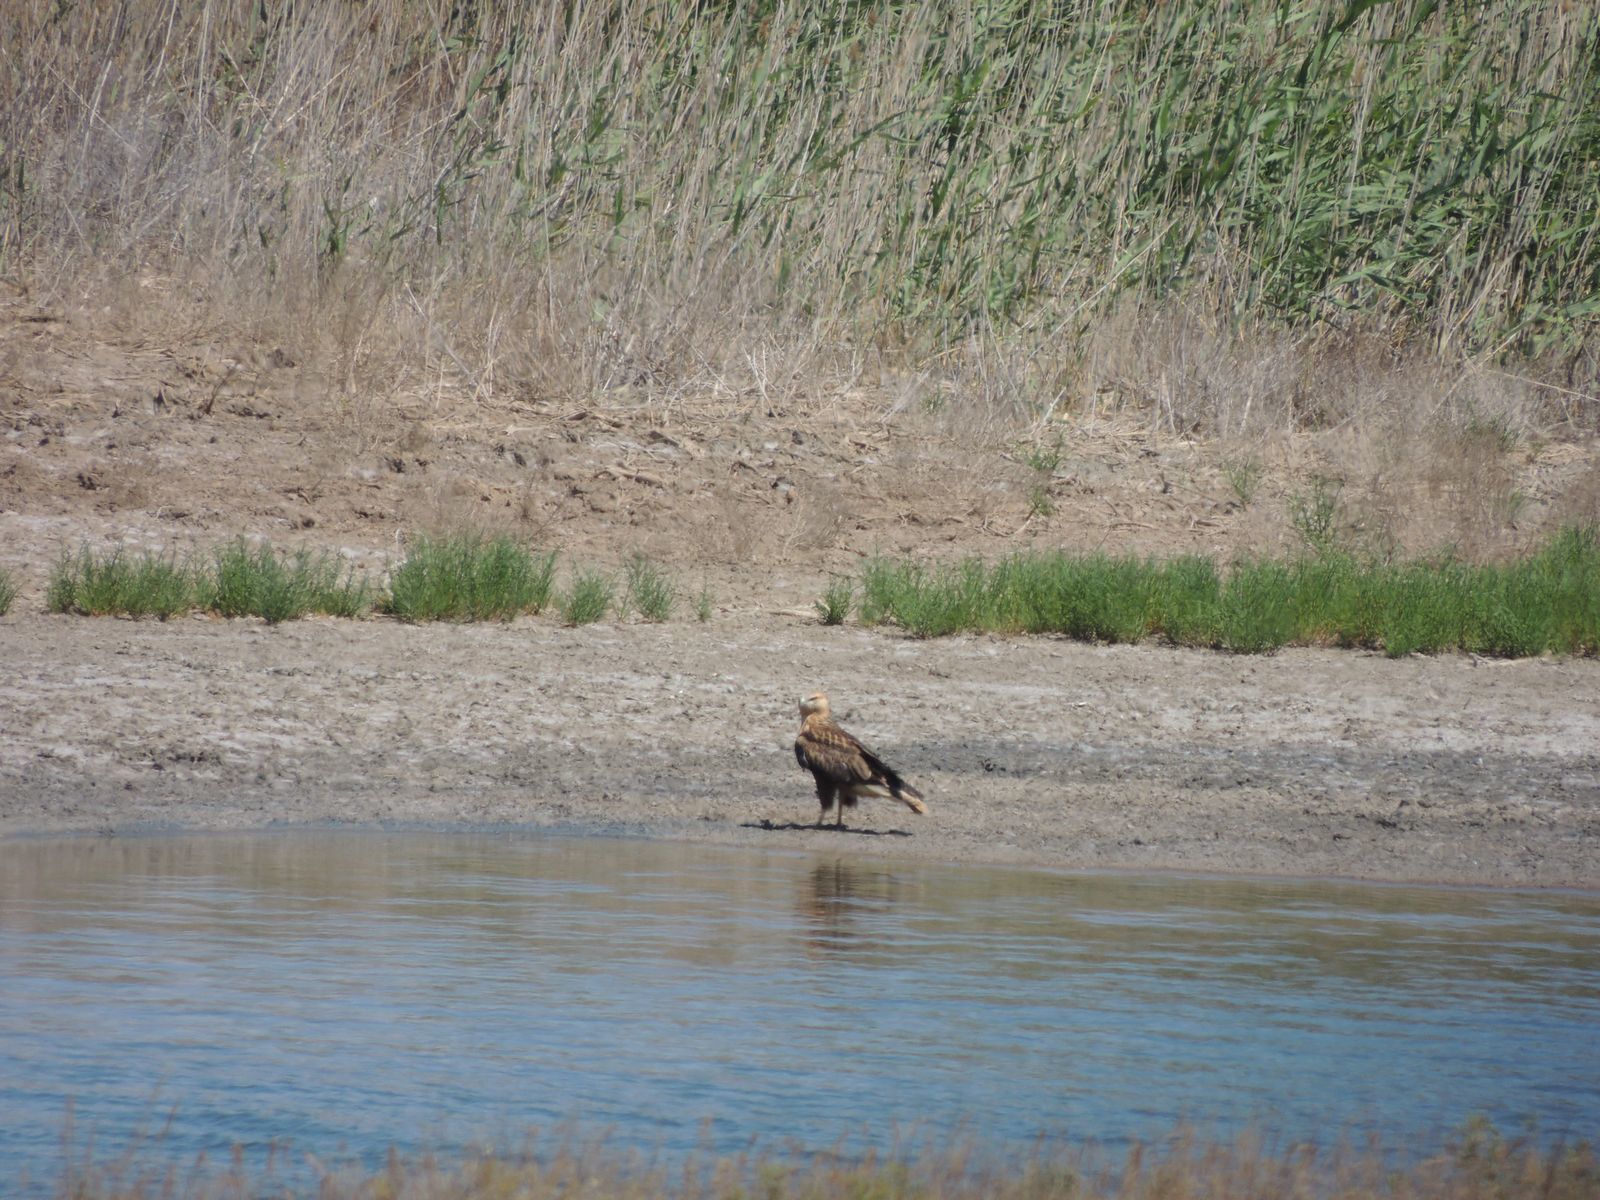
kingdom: Animalia
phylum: Chordata
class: Aves
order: Accipitriformes
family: Accipitridae
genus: Buteo
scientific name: Buteo rufinus
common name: Long-legged buzzard
